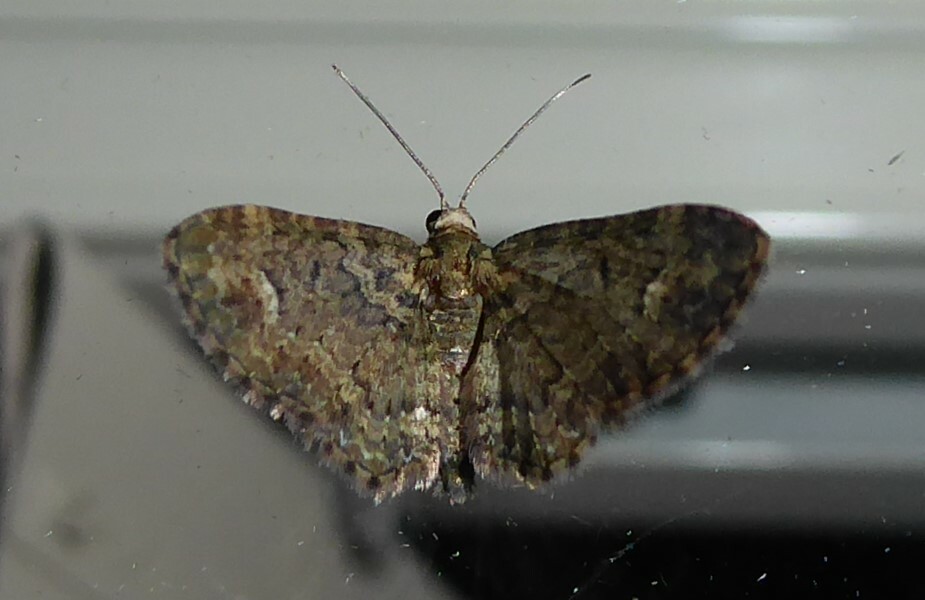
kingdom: Animalia
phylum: Arthropoda
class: Insecta
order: Lepidoptera
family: Geometridae
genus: Pasiphilodes
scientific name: Pasiphilodes testulata
